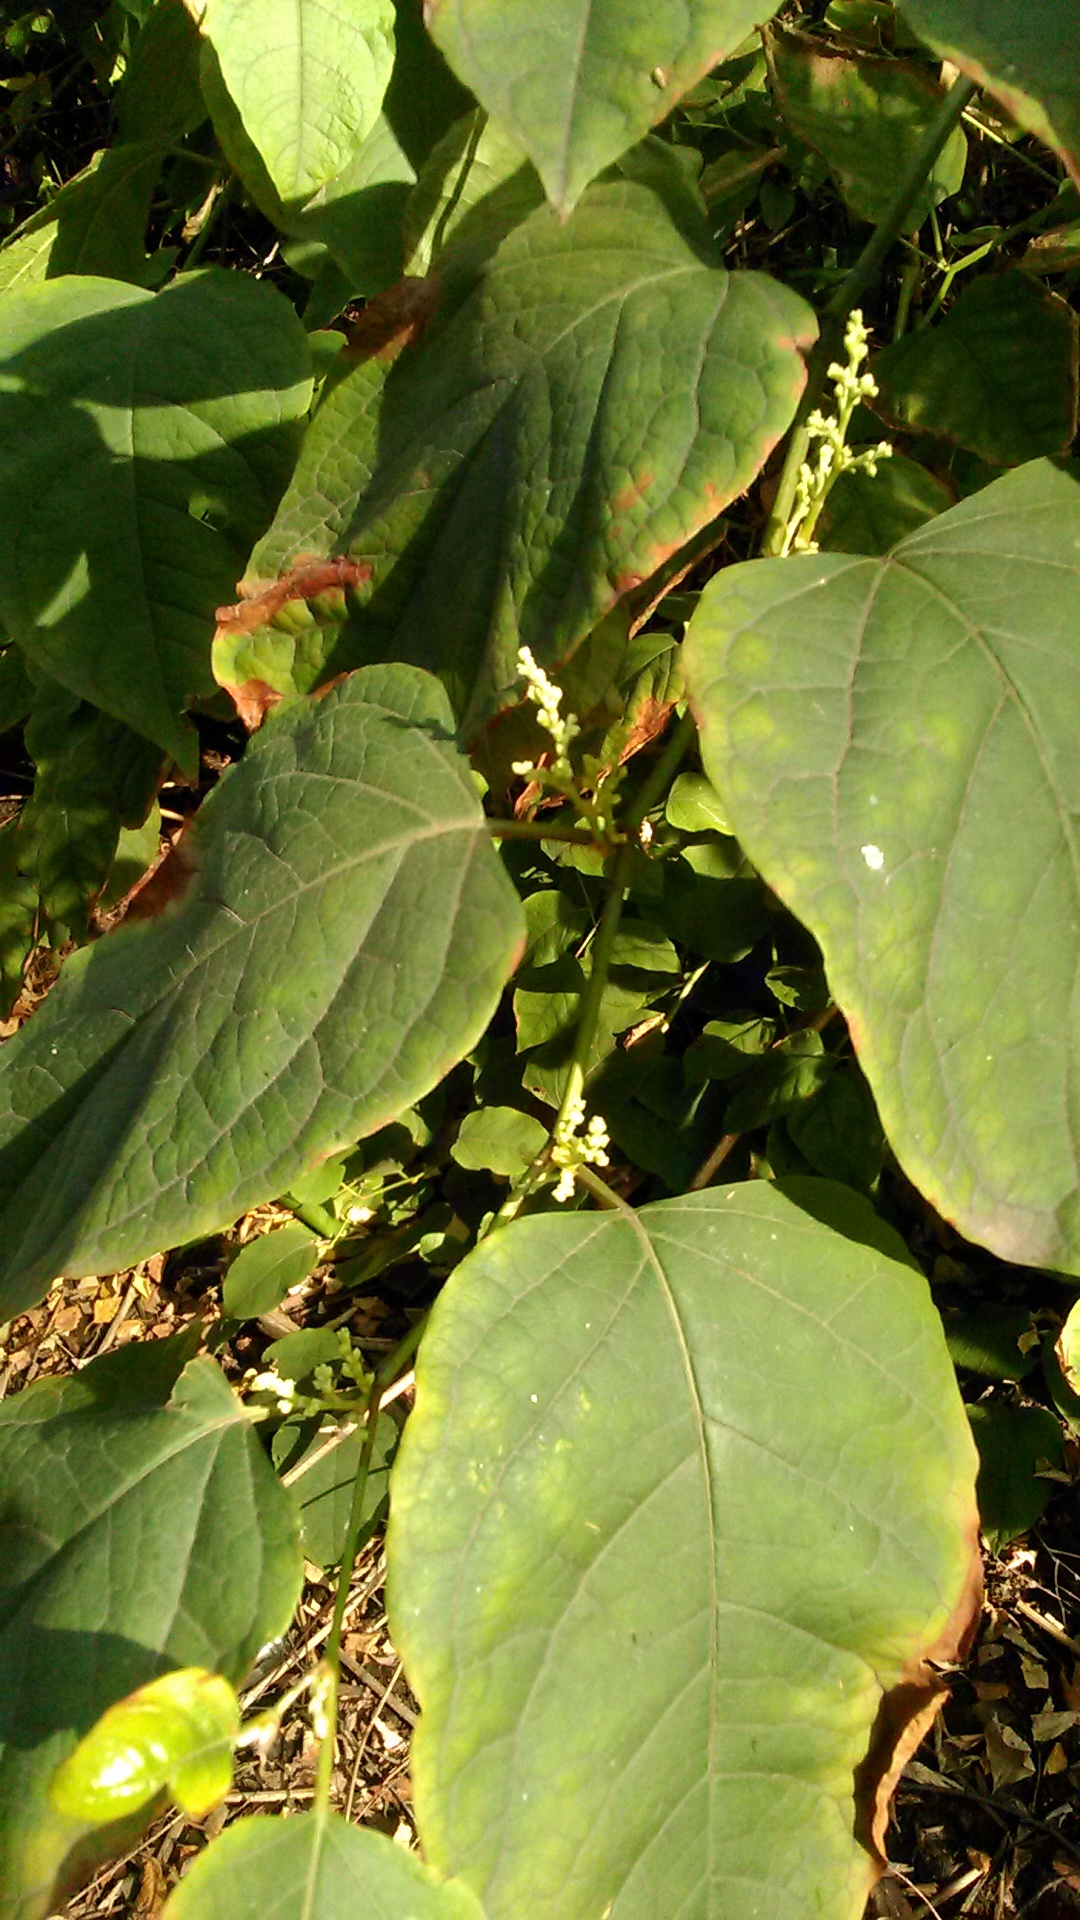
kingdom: Plantae
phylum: Tracheophyta
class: Magnoliopsida
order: Caryophyllales
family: Polygonaceae
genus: Reynoutria
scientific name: Reynoutria bohemica
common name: Bohemian knotweed
